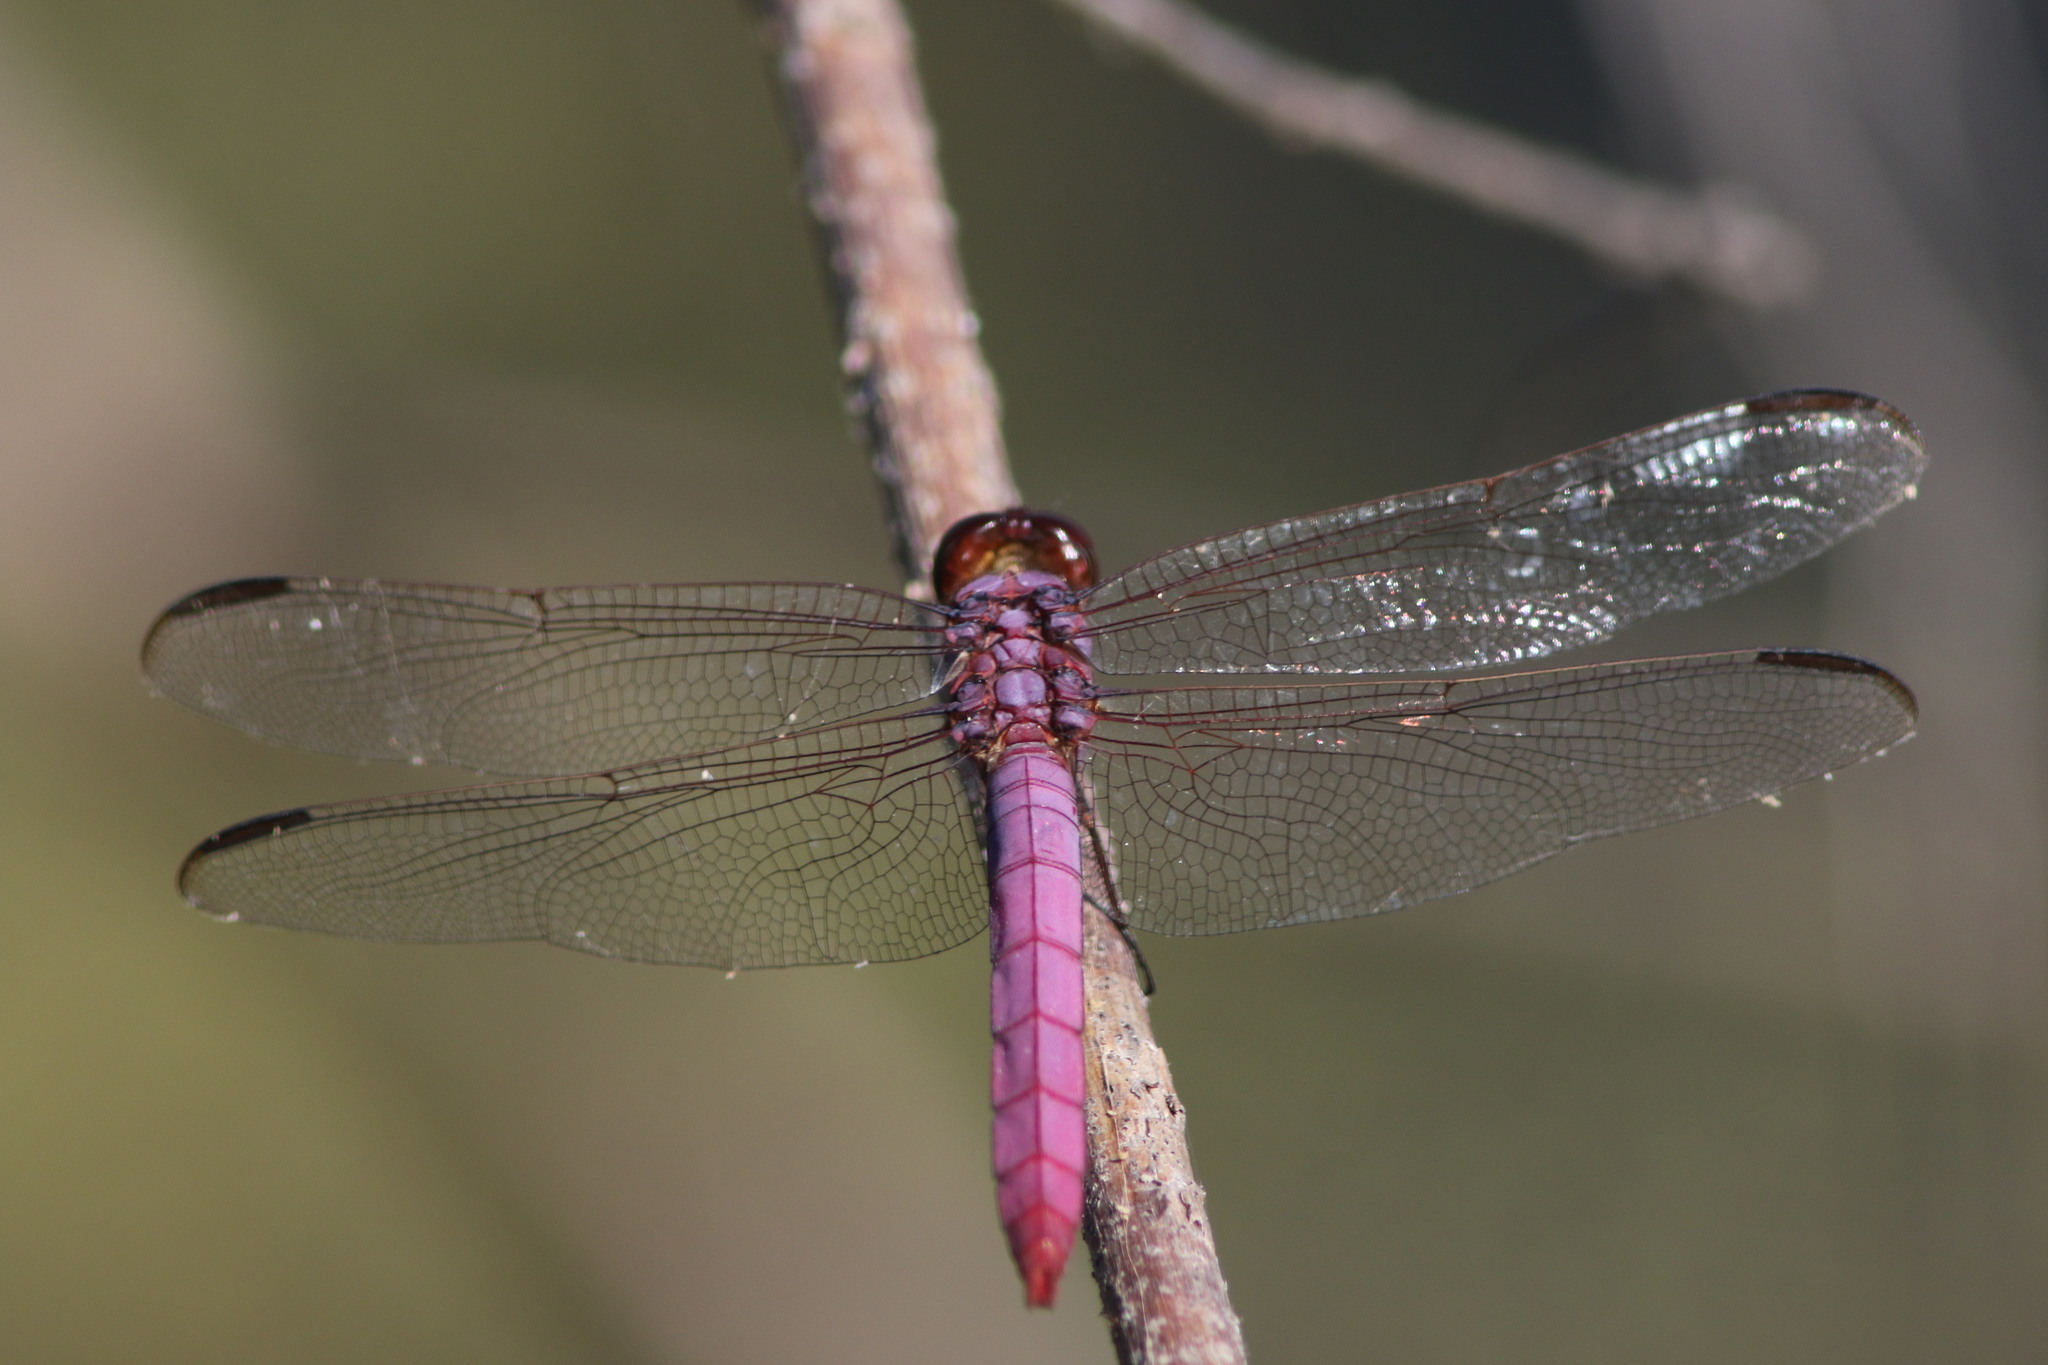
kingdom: Animalia
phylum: Arthropoda
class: Insecta
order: Odonata
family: Libellulidae
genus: Orthemis
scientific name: Orthemis ferruginea
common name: Roseate skimmer
